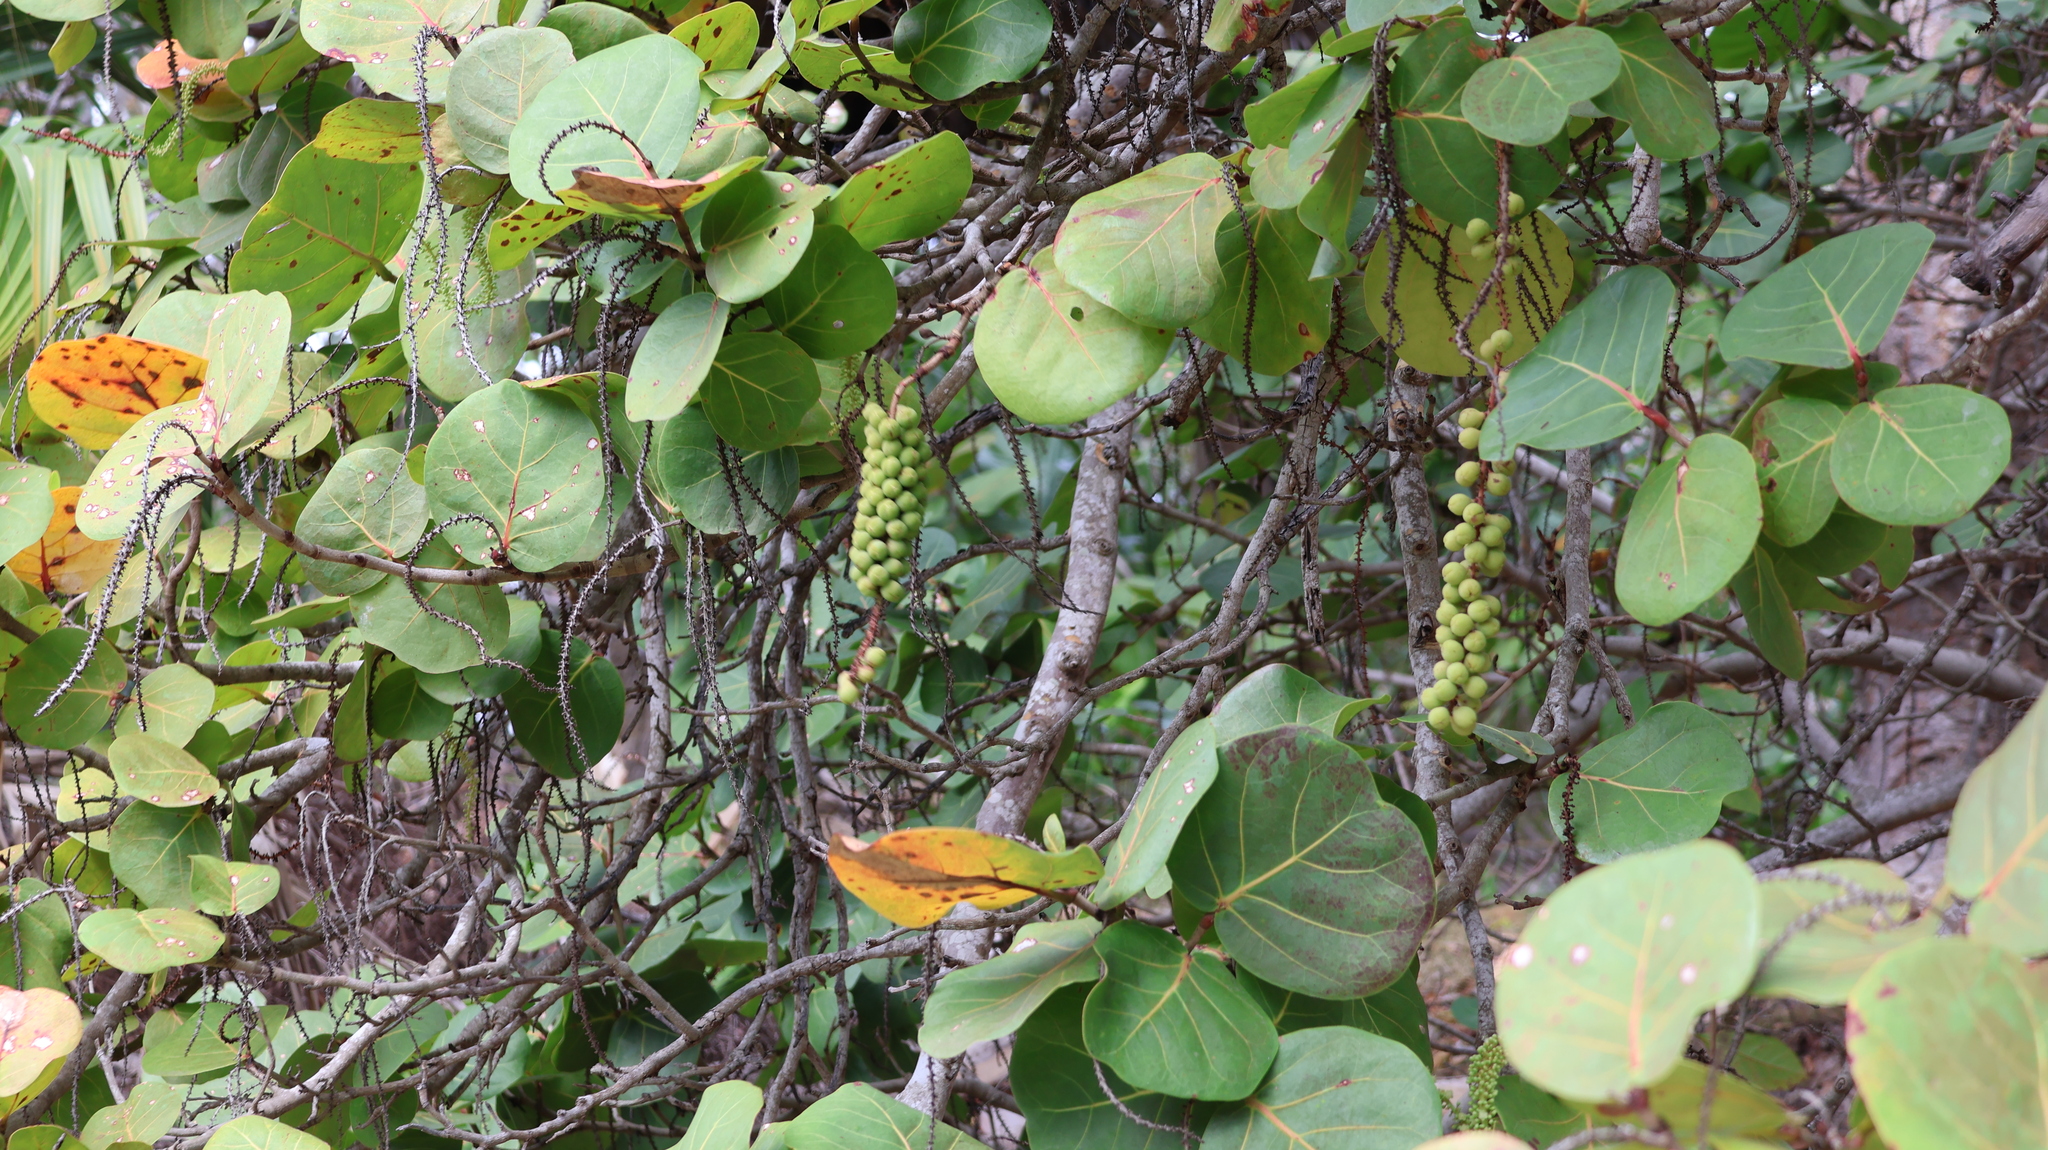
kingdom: Plantae
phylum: Tracheophyta
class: Magnoliopsida
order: Caryophyllales
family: Polygonaceae
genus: Coccoloba
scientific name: Coccoloba uvifera
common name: Seagrape
